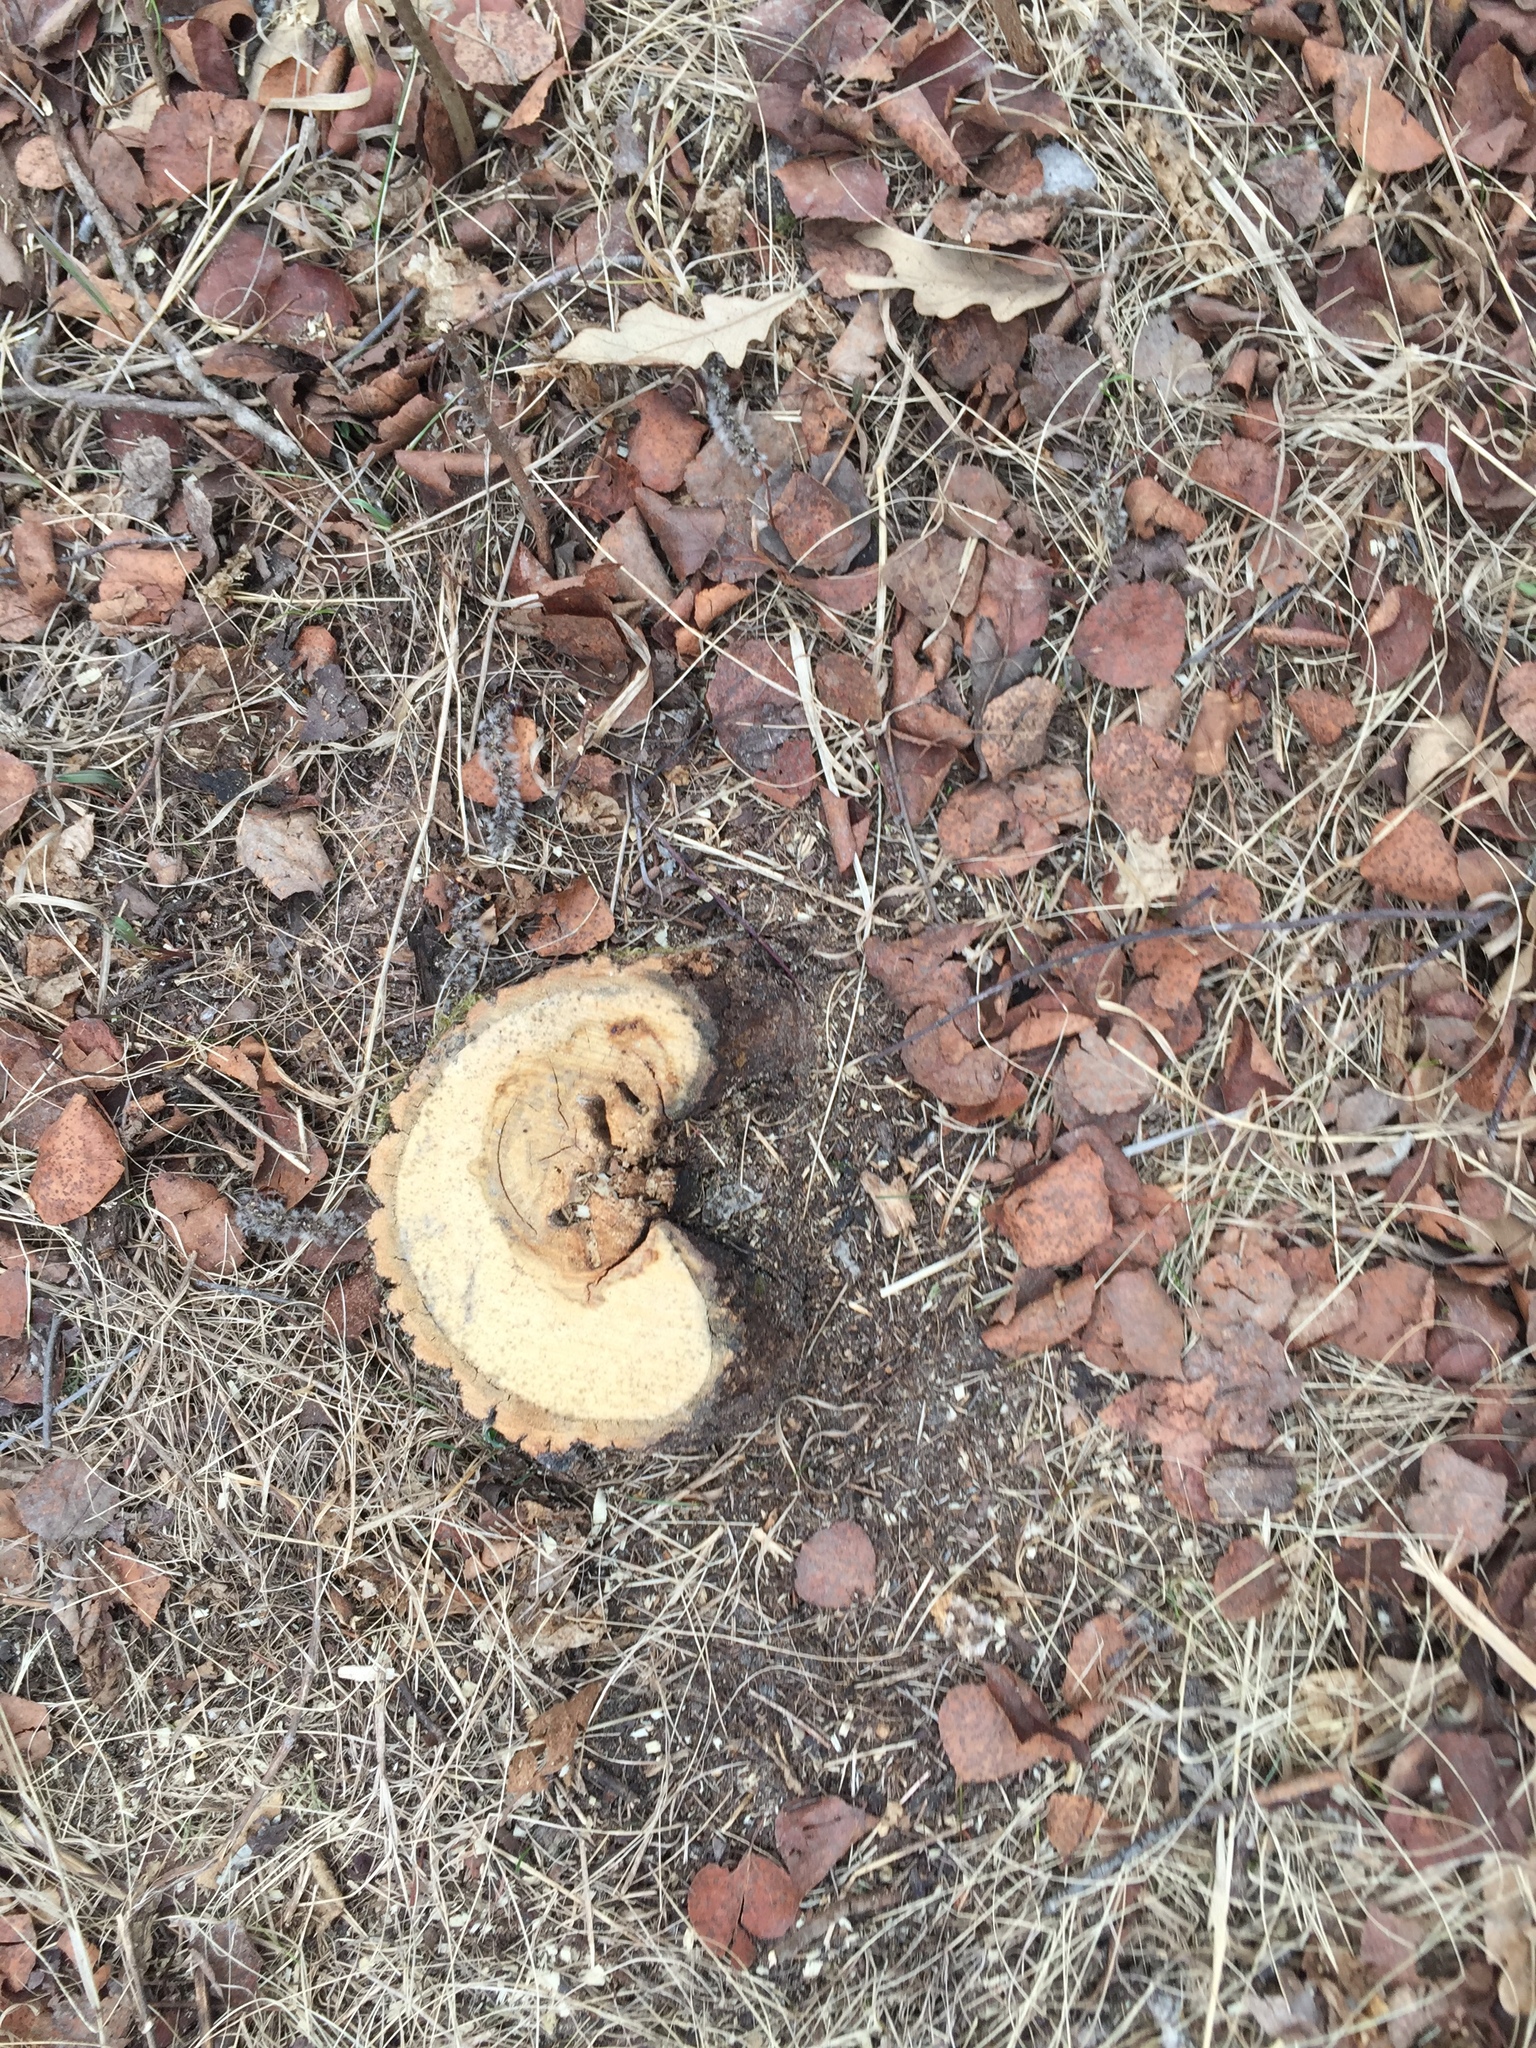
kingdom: Plantae
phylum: Tracheophyta
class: Magnoliopsida
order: Fagales
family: Fagaceae
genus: Quercus
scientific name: Quercus macrocarpa
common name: Bur oak
